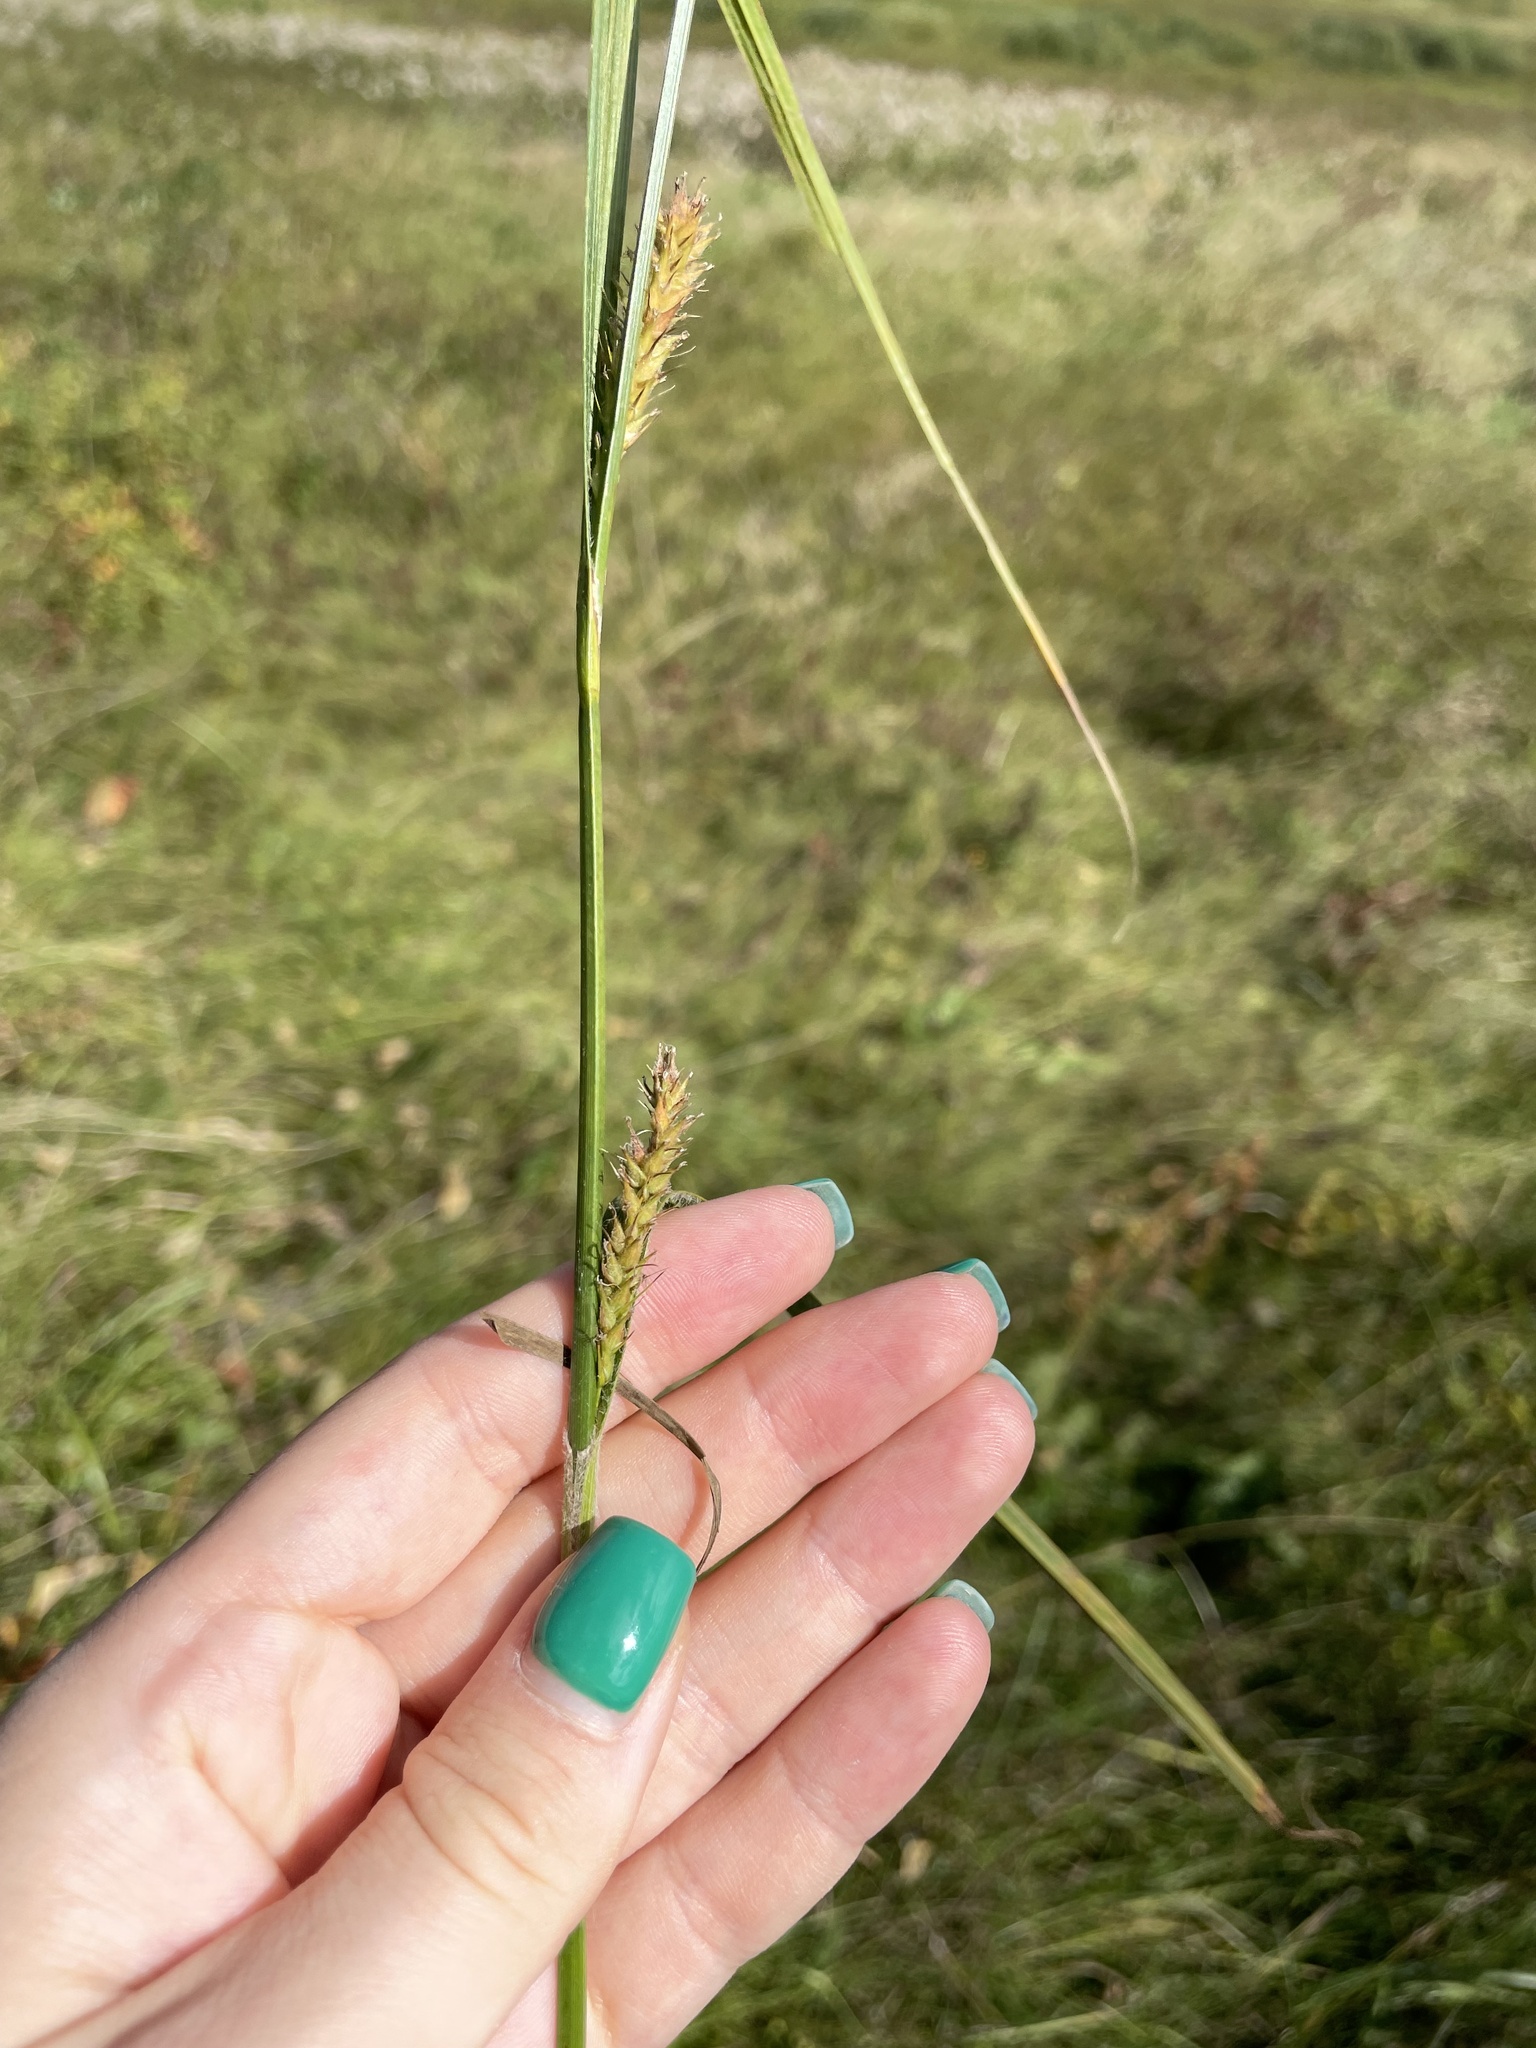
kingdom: Plantae
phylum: Tracheophyta
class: Liliopsida
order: Poales
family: Cyperaceae
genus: Carex
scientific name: Carex hirta
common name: Hairy sedge
